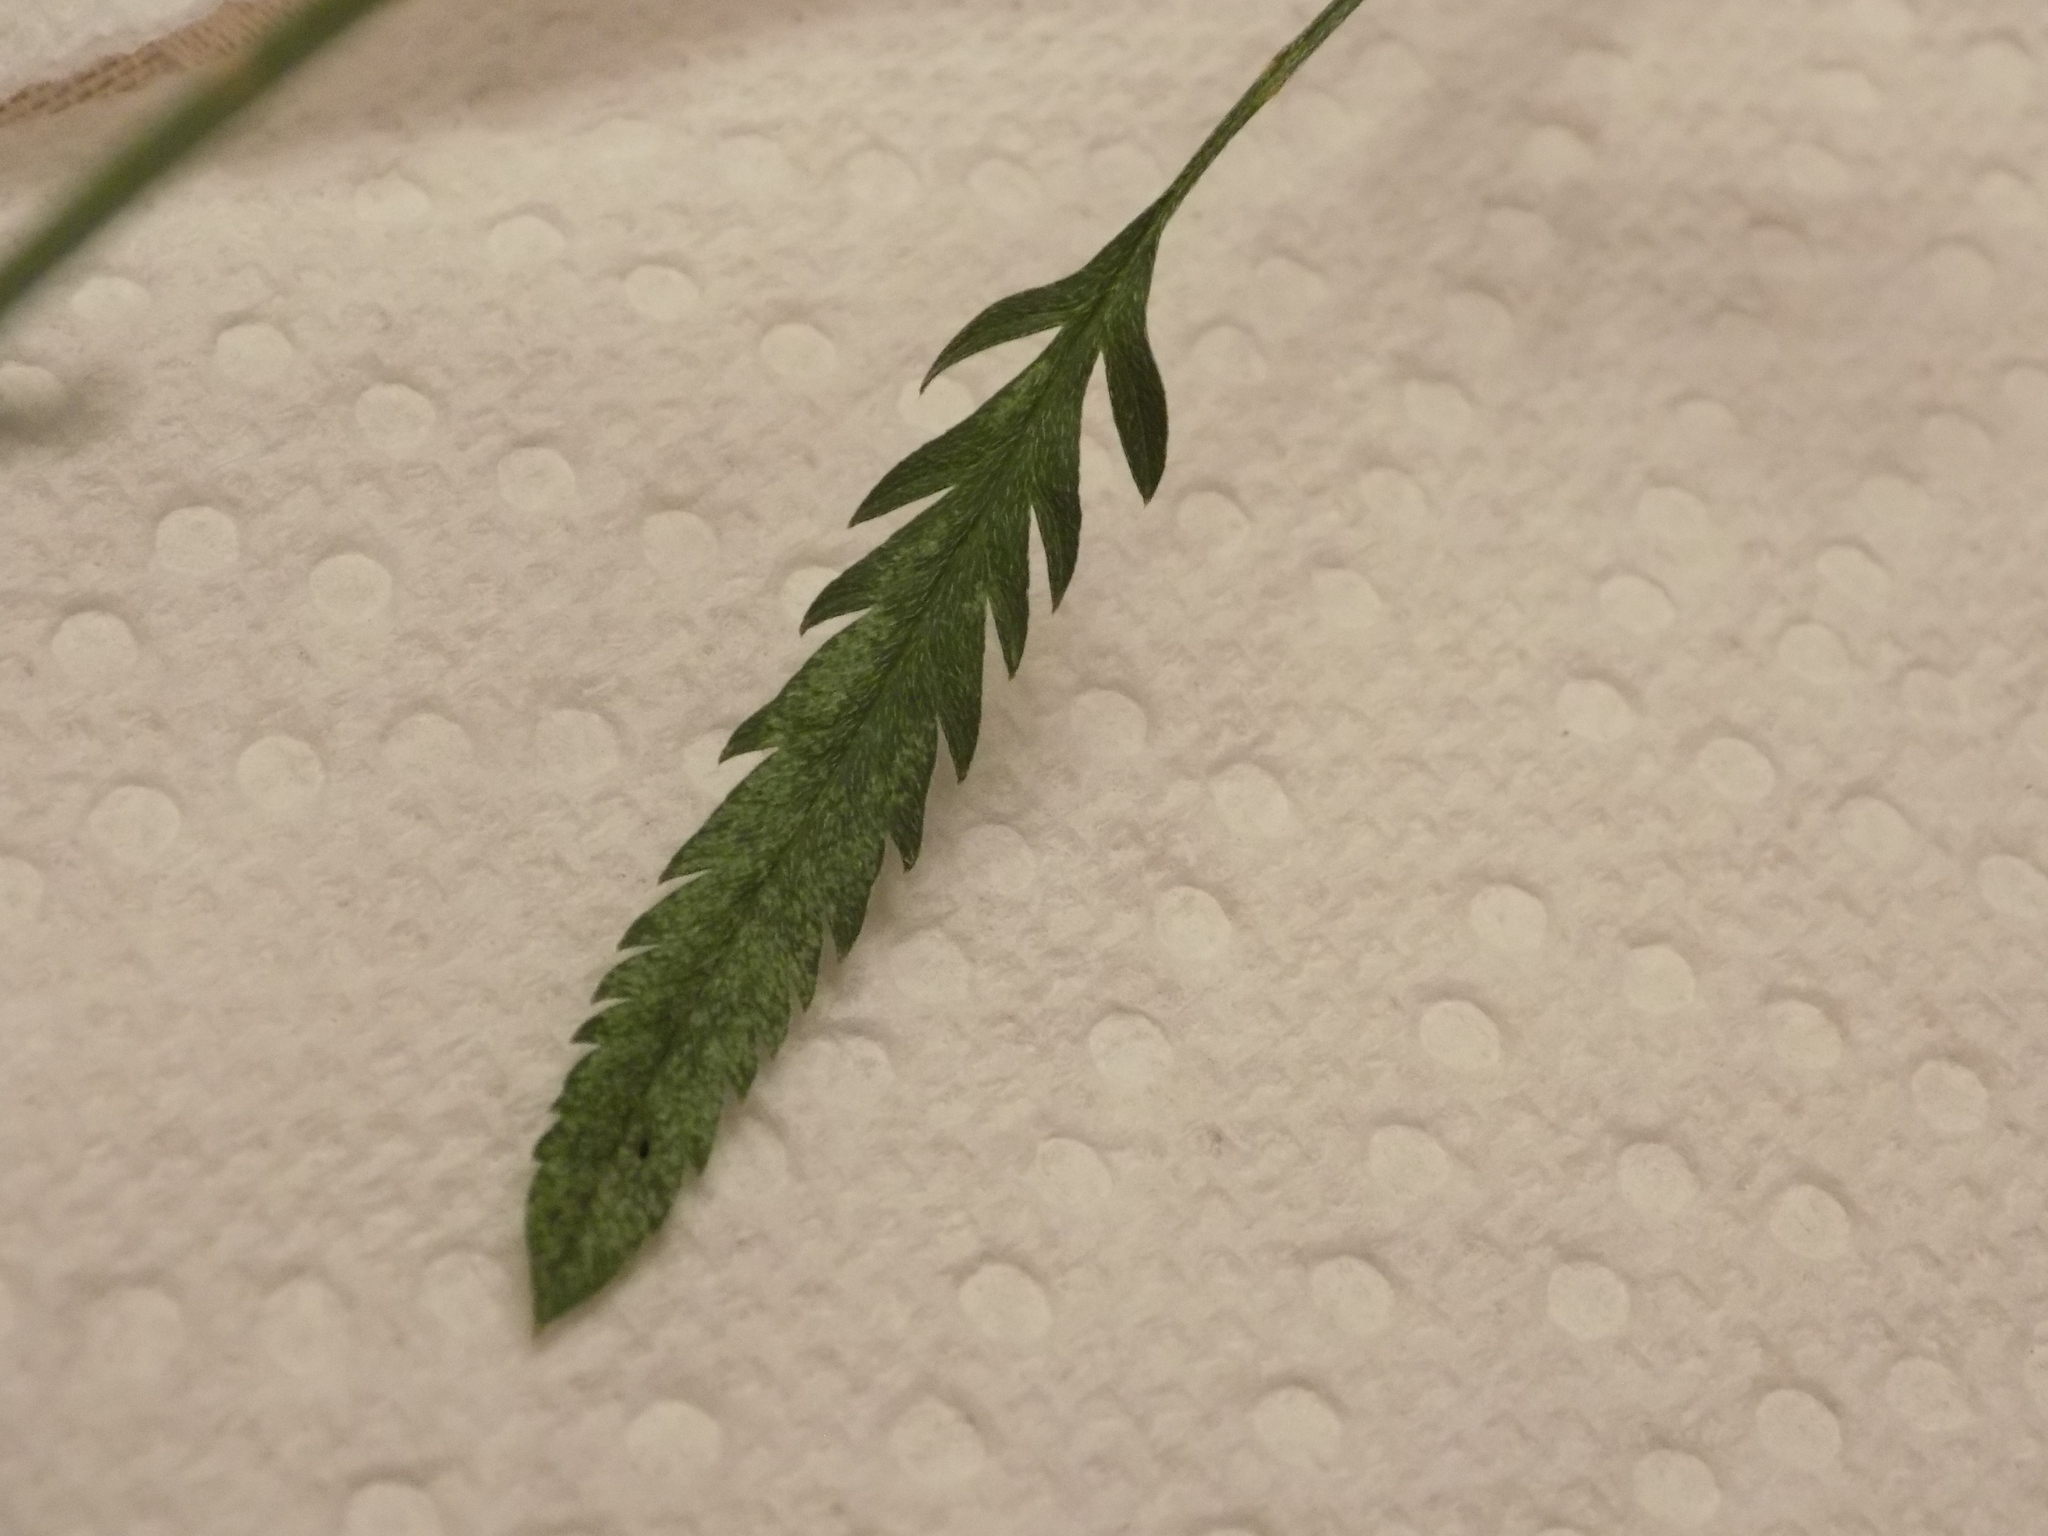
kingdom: Plantae
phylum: Tracheophyta
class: Magnoliopsida
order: Apiales
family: Apiaceae
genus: Torilis
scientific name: Torilis arvensis
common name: Spreading hedge-parsley
